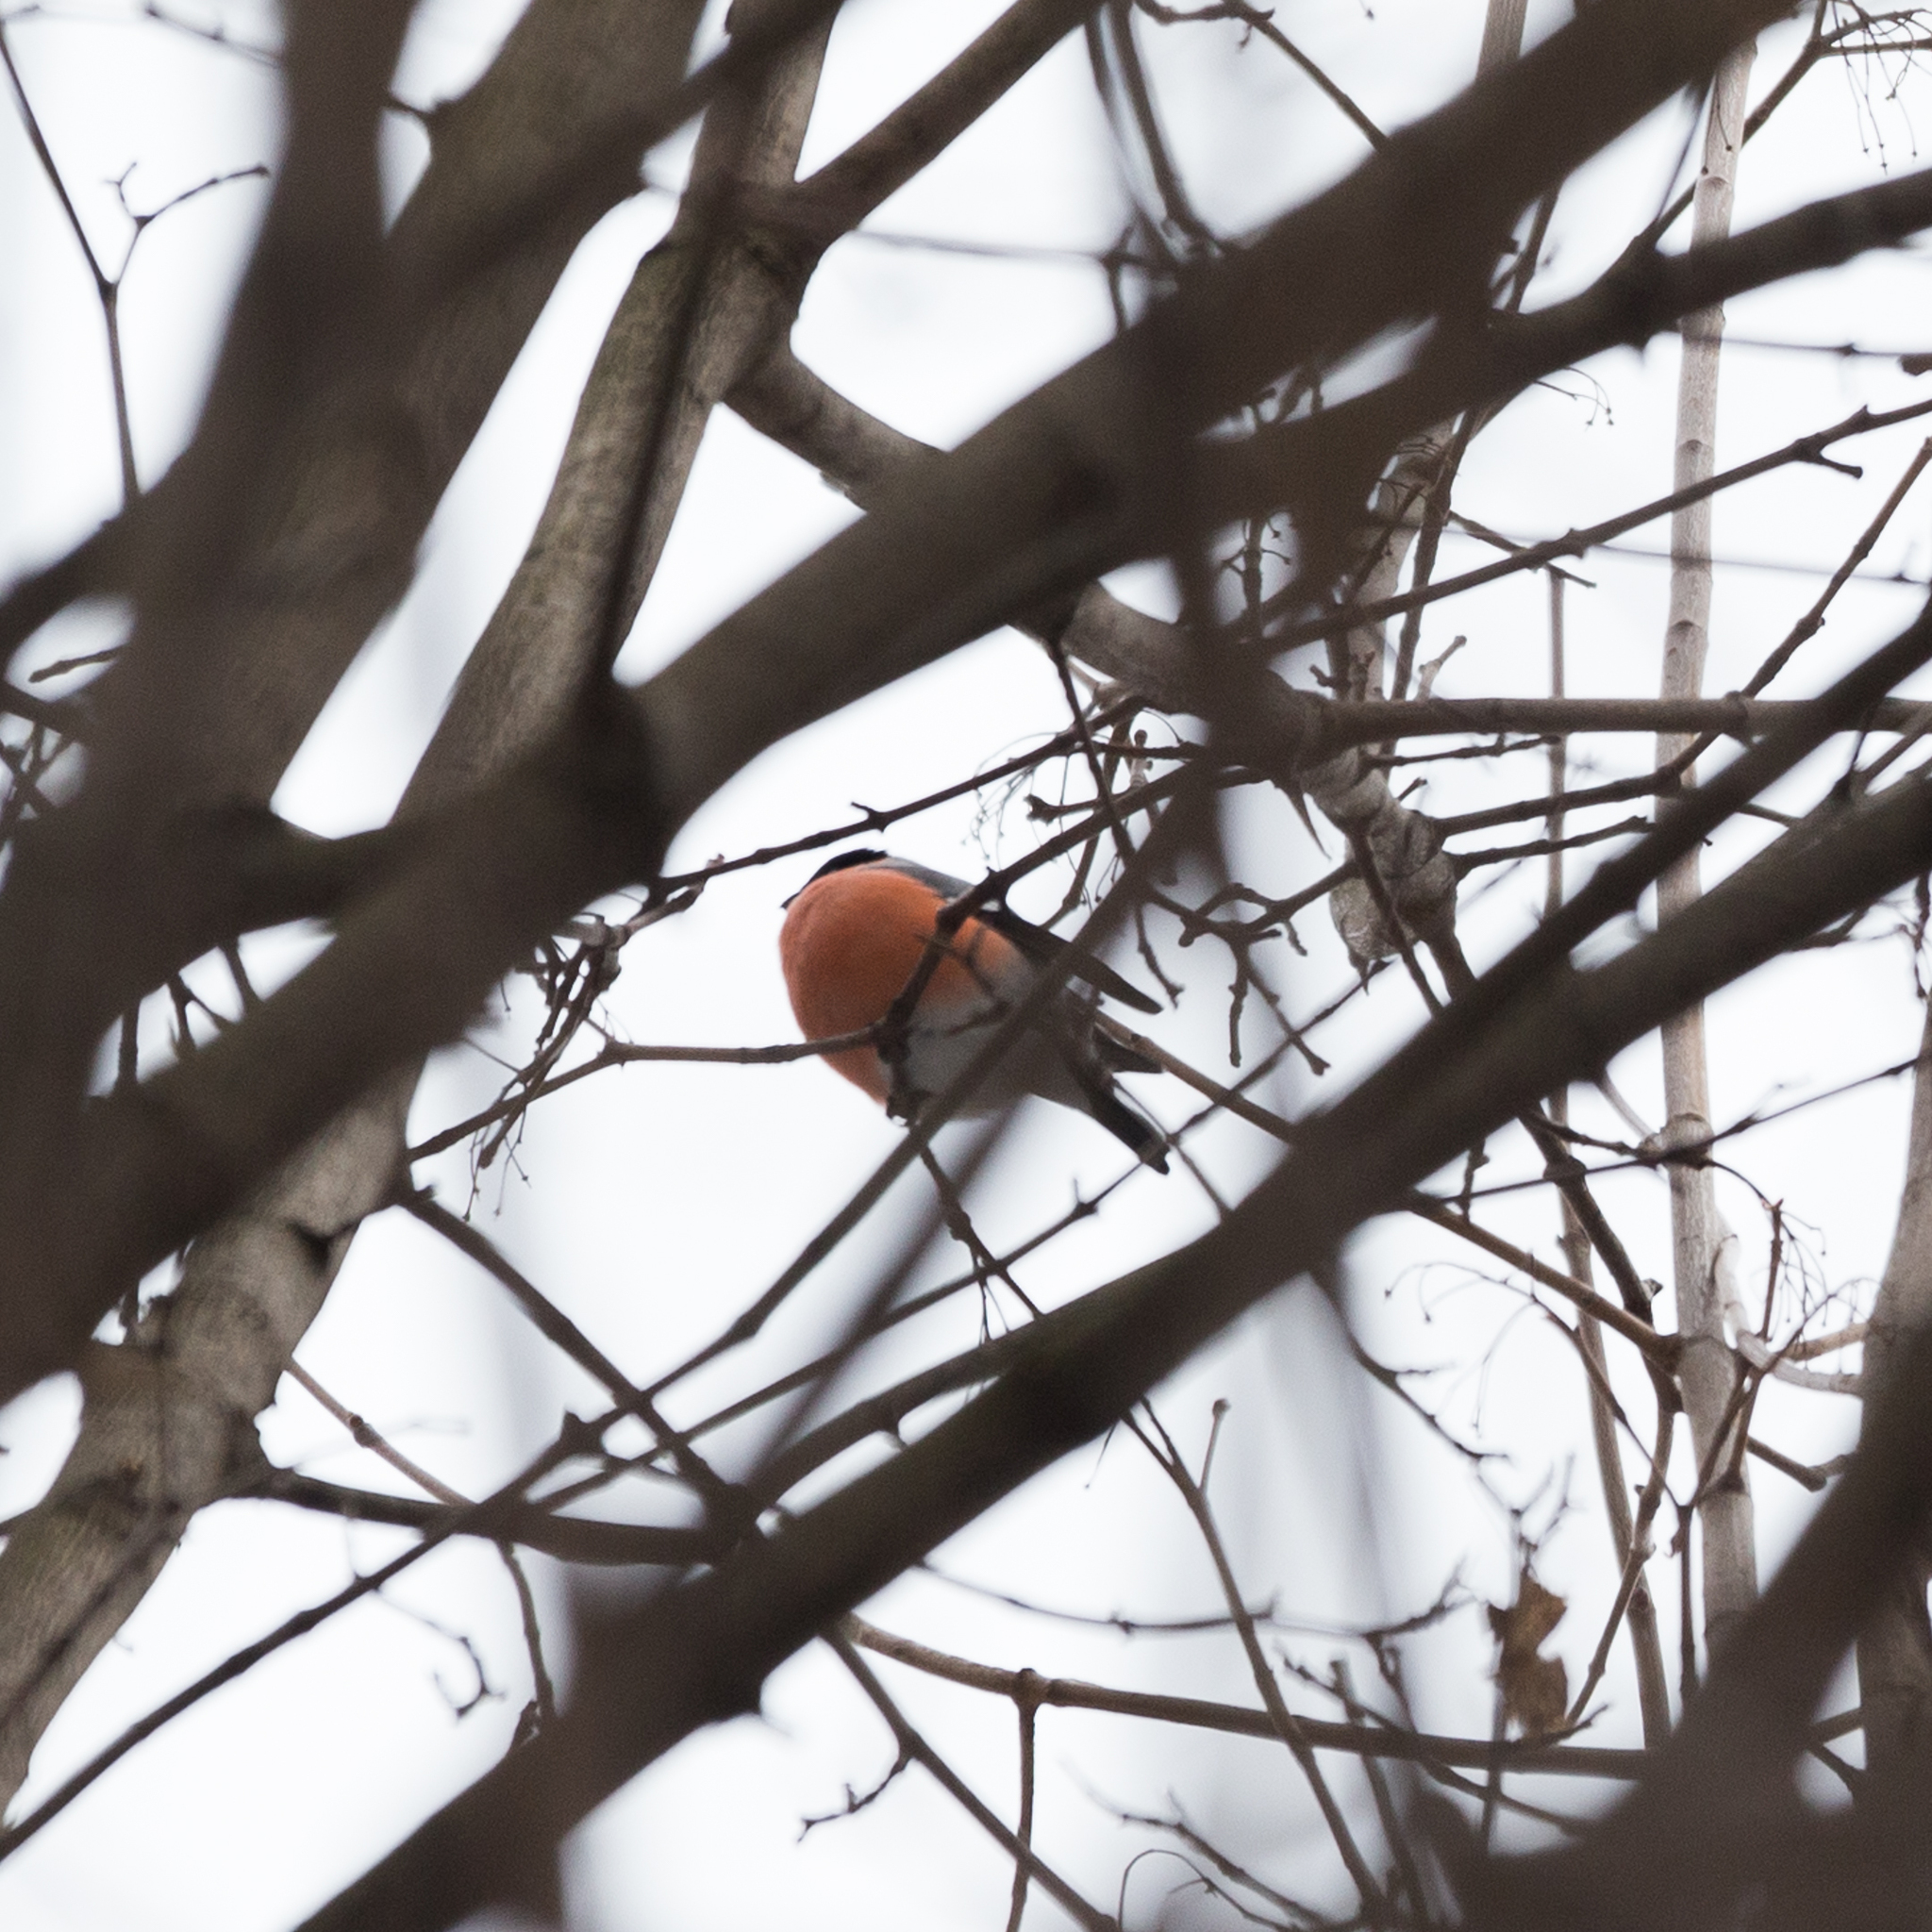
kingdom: Animalia
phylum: Chordata
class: Aves
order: Passeriformes
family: Fringillidae
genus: Pyrrhula
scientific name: Pyrrhula pyrrhula
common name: Eurasian bullfinch
